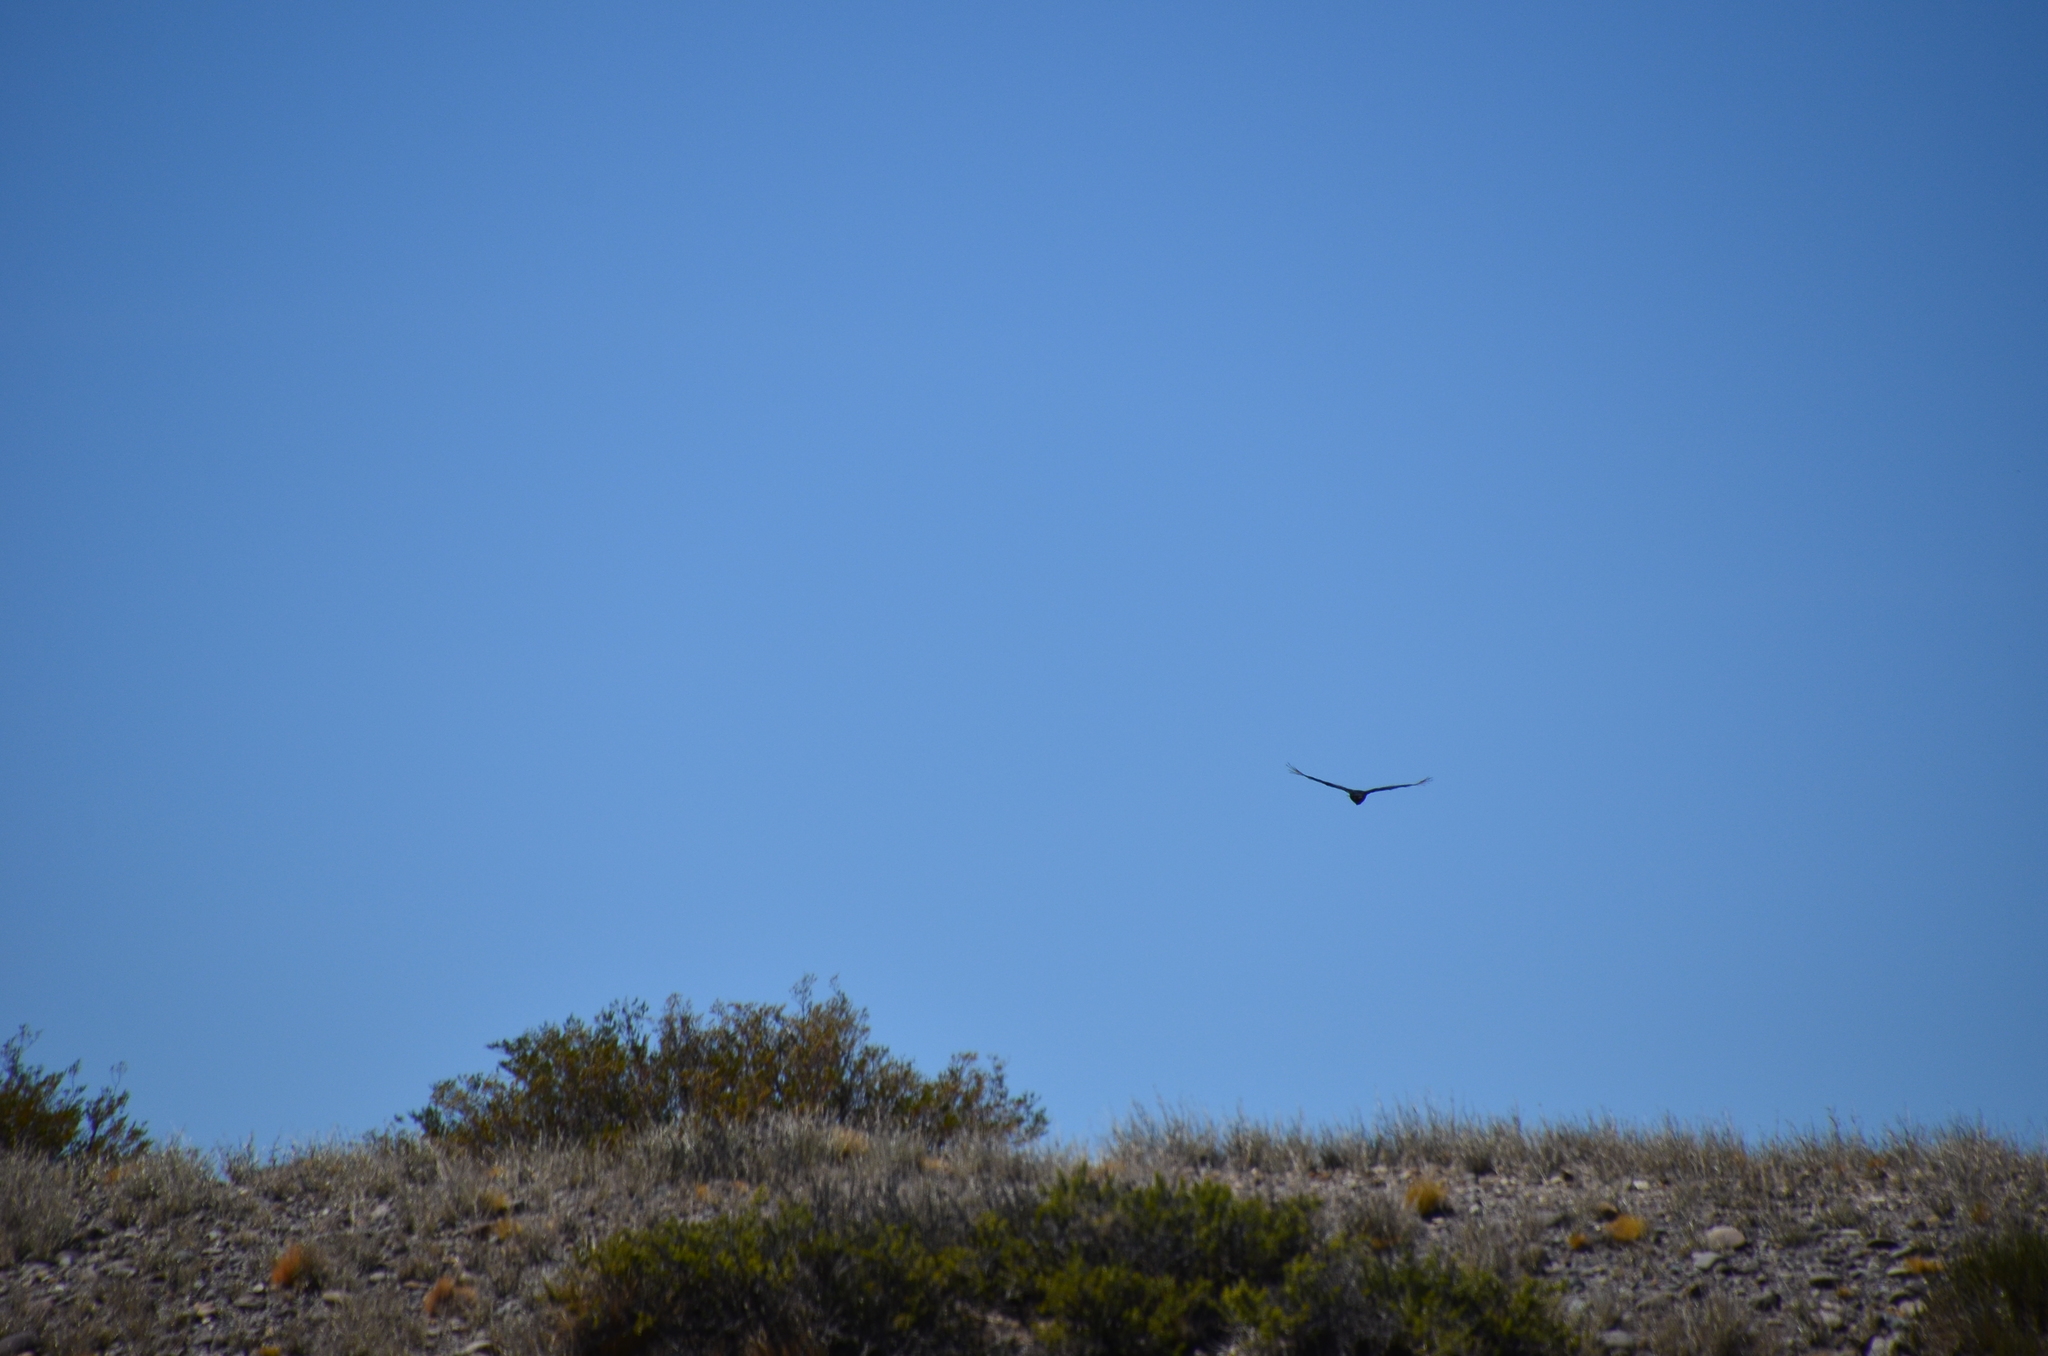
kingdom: Animalia
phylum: Chordata
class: Aves
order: Accipitriformes
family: Cathartidae
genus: Coragyps
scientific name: Coragyps atratus
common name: Black vulture
